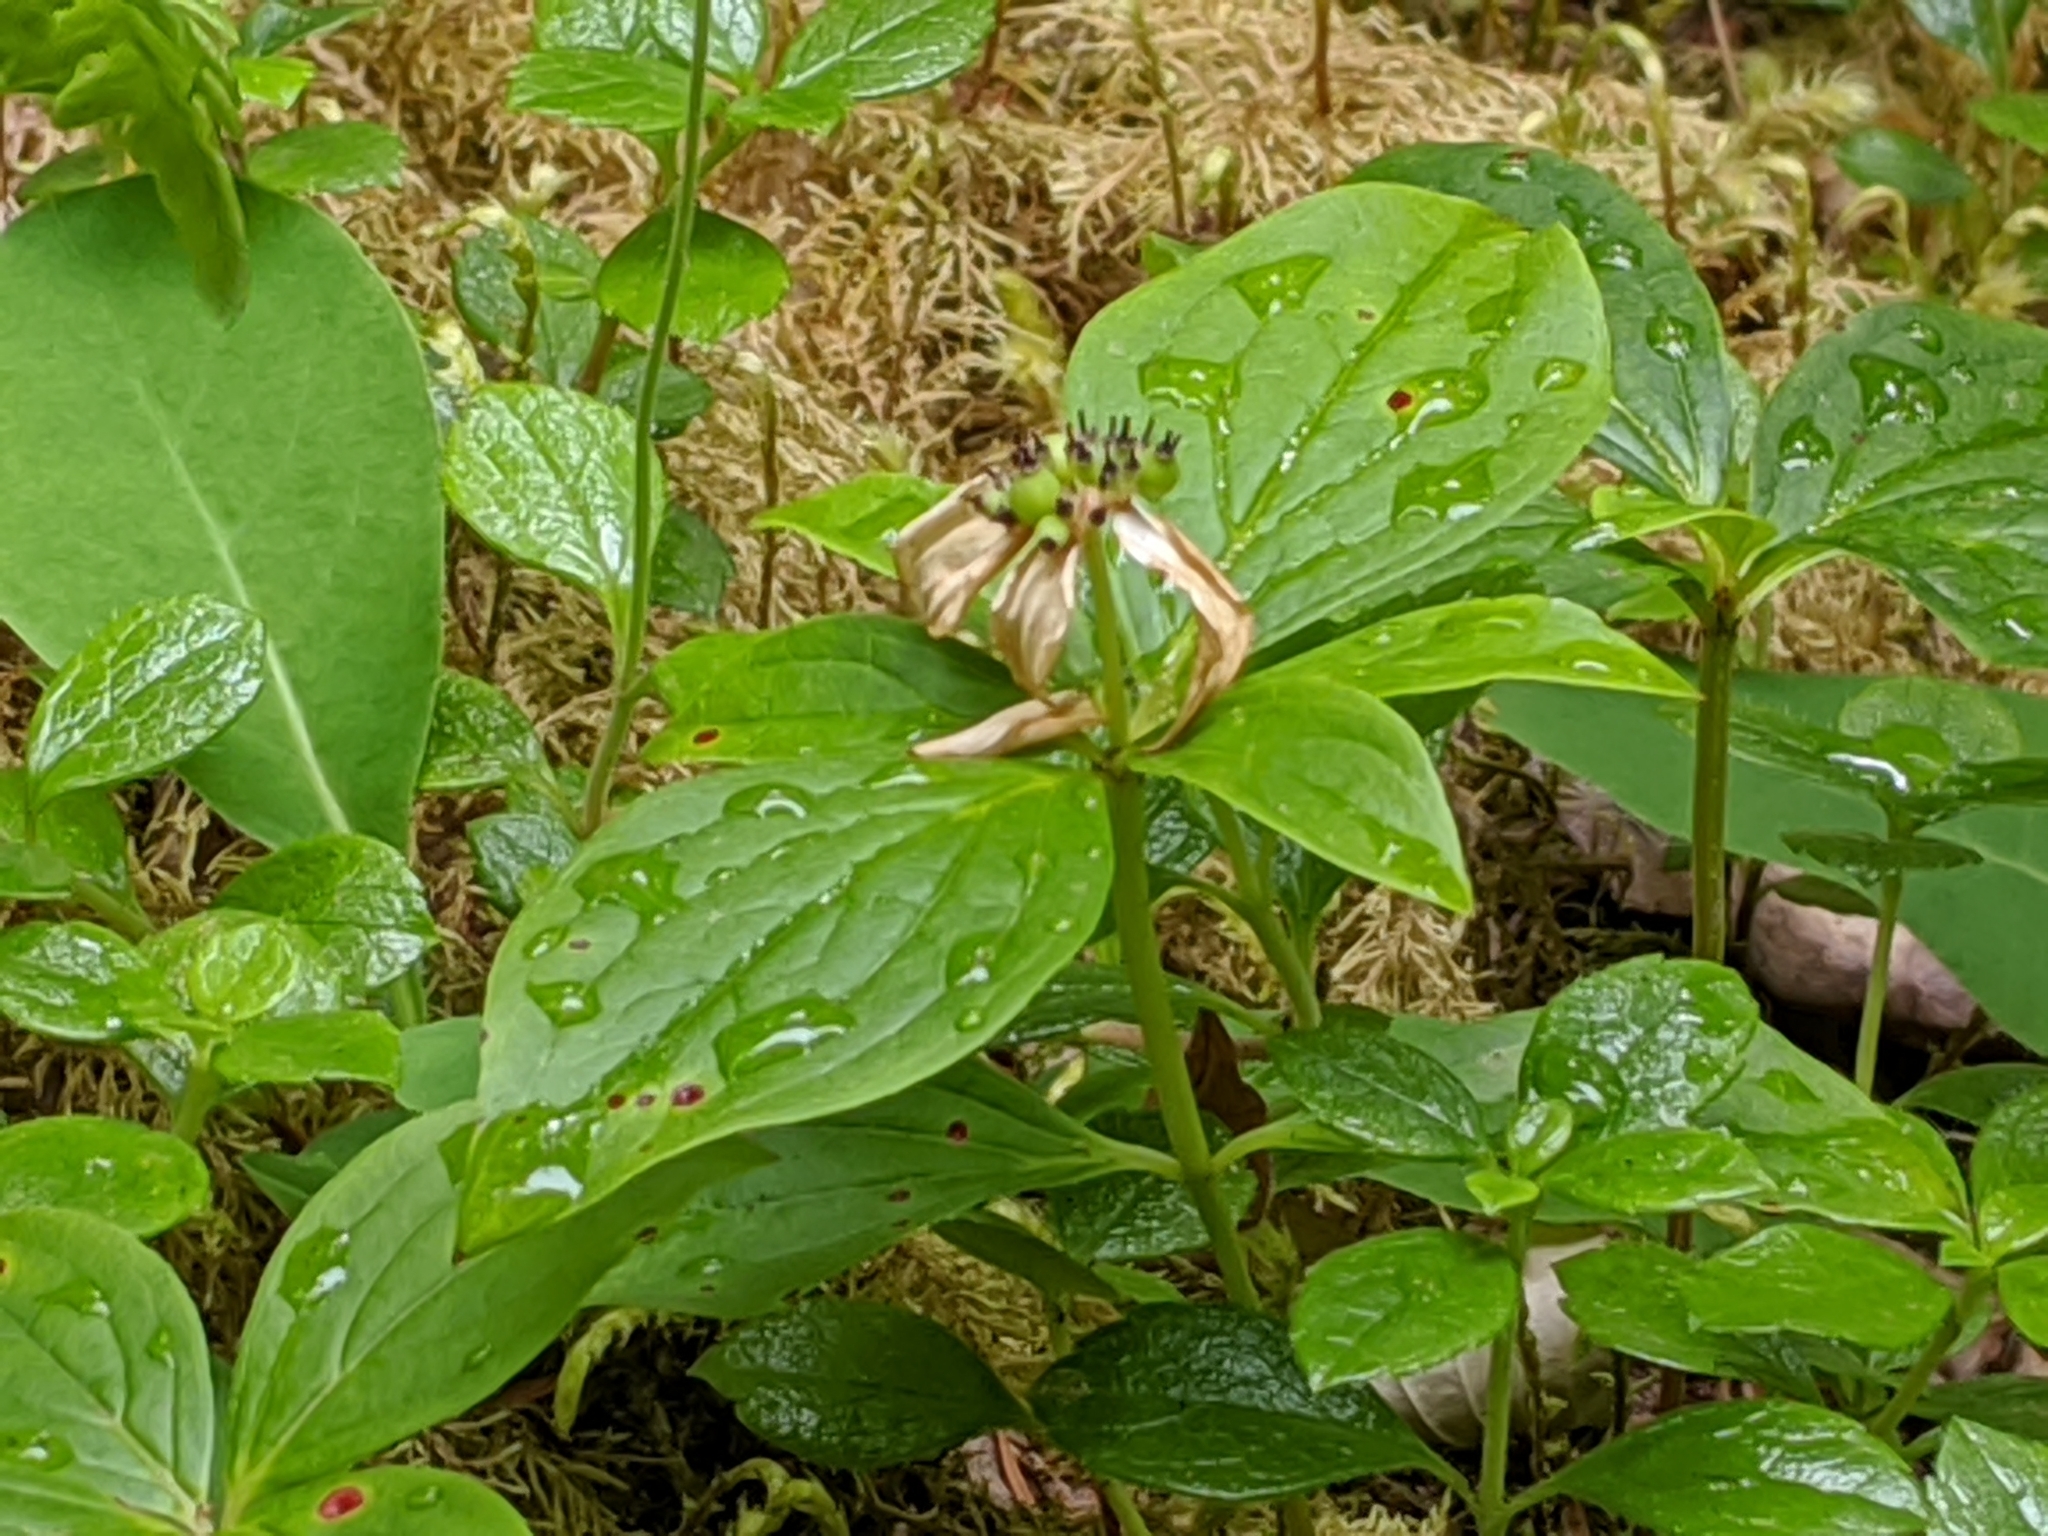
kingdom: Plantae
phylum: Tracheophyta
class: Magnoliopsida
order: Cornales
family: Cornaceae
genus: Cornus
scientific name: Cornus unalaschkensis
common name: Alaska bunchberry
